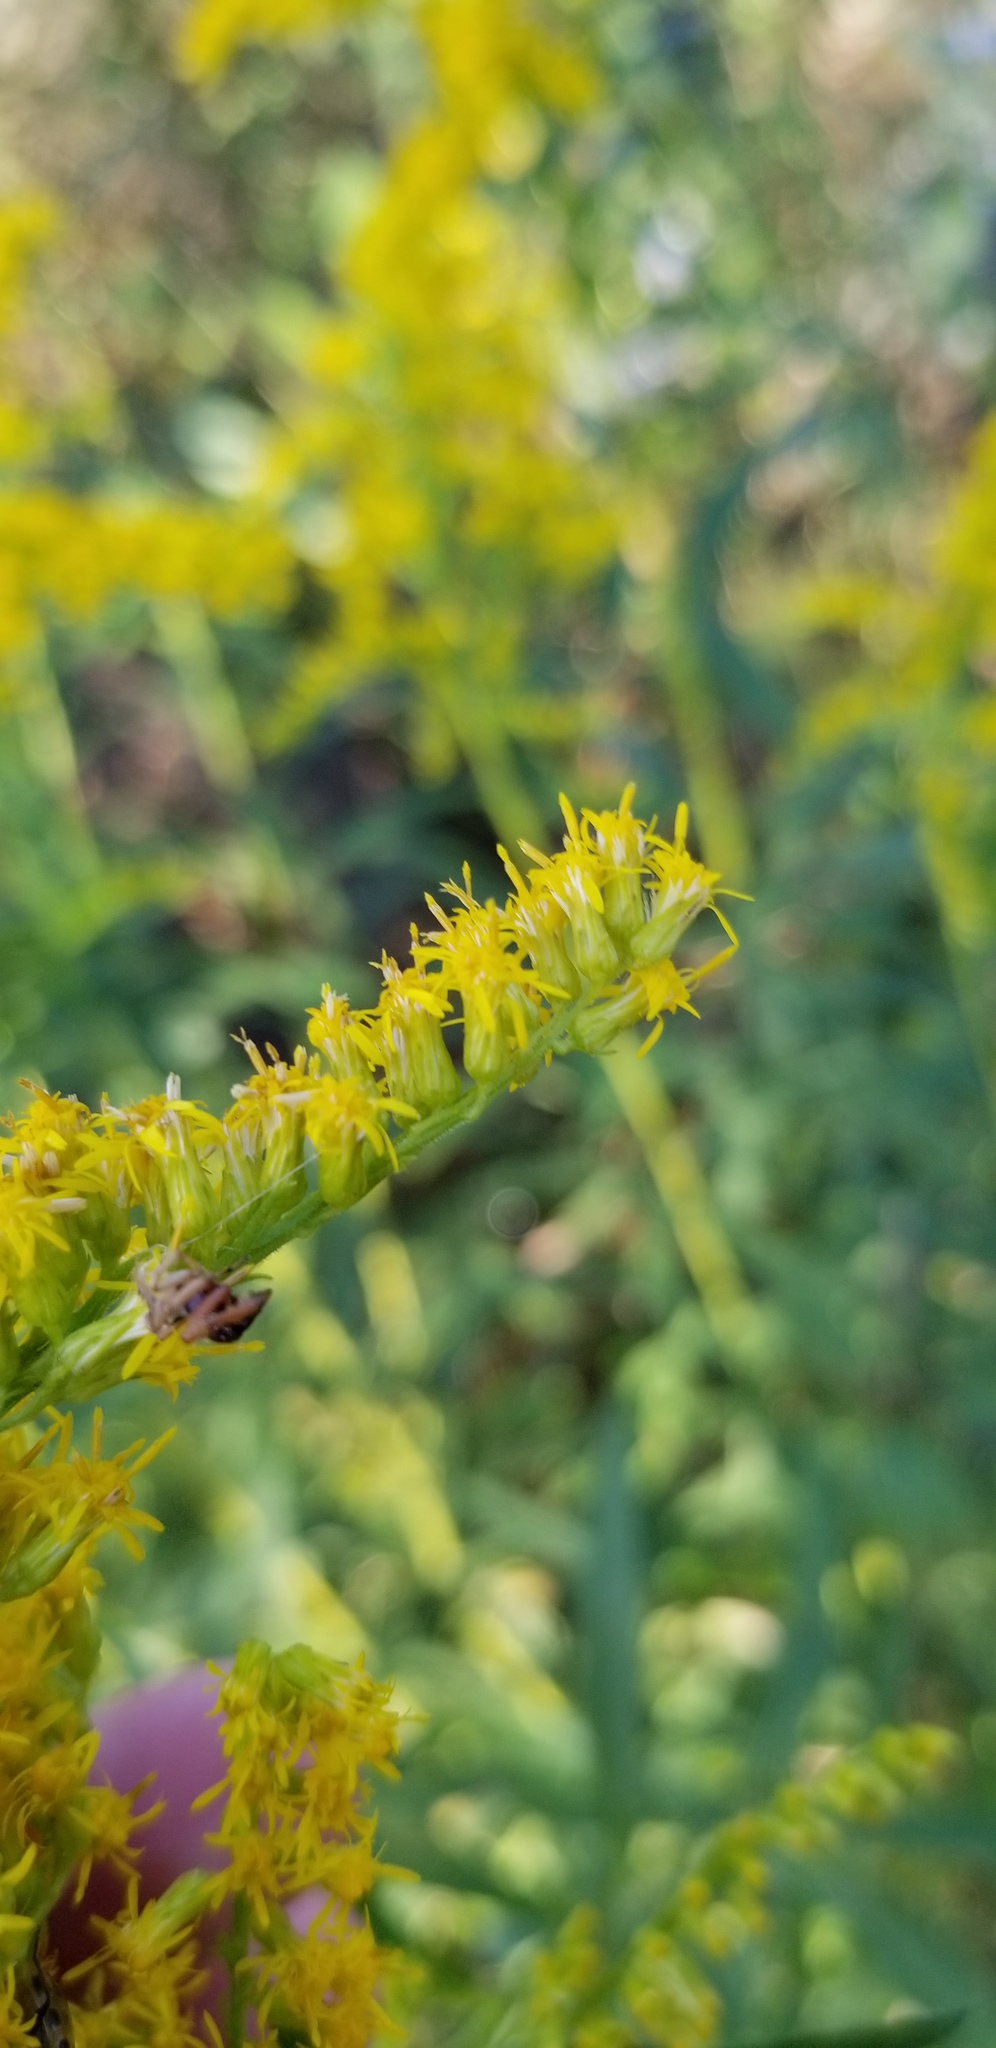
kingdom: Plantae
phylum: Tracheophyta
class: Magnoliopsida
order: Asterales
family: Asteraceae
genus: Solidago
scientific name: Solidago altissima
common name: Late goldenrod
